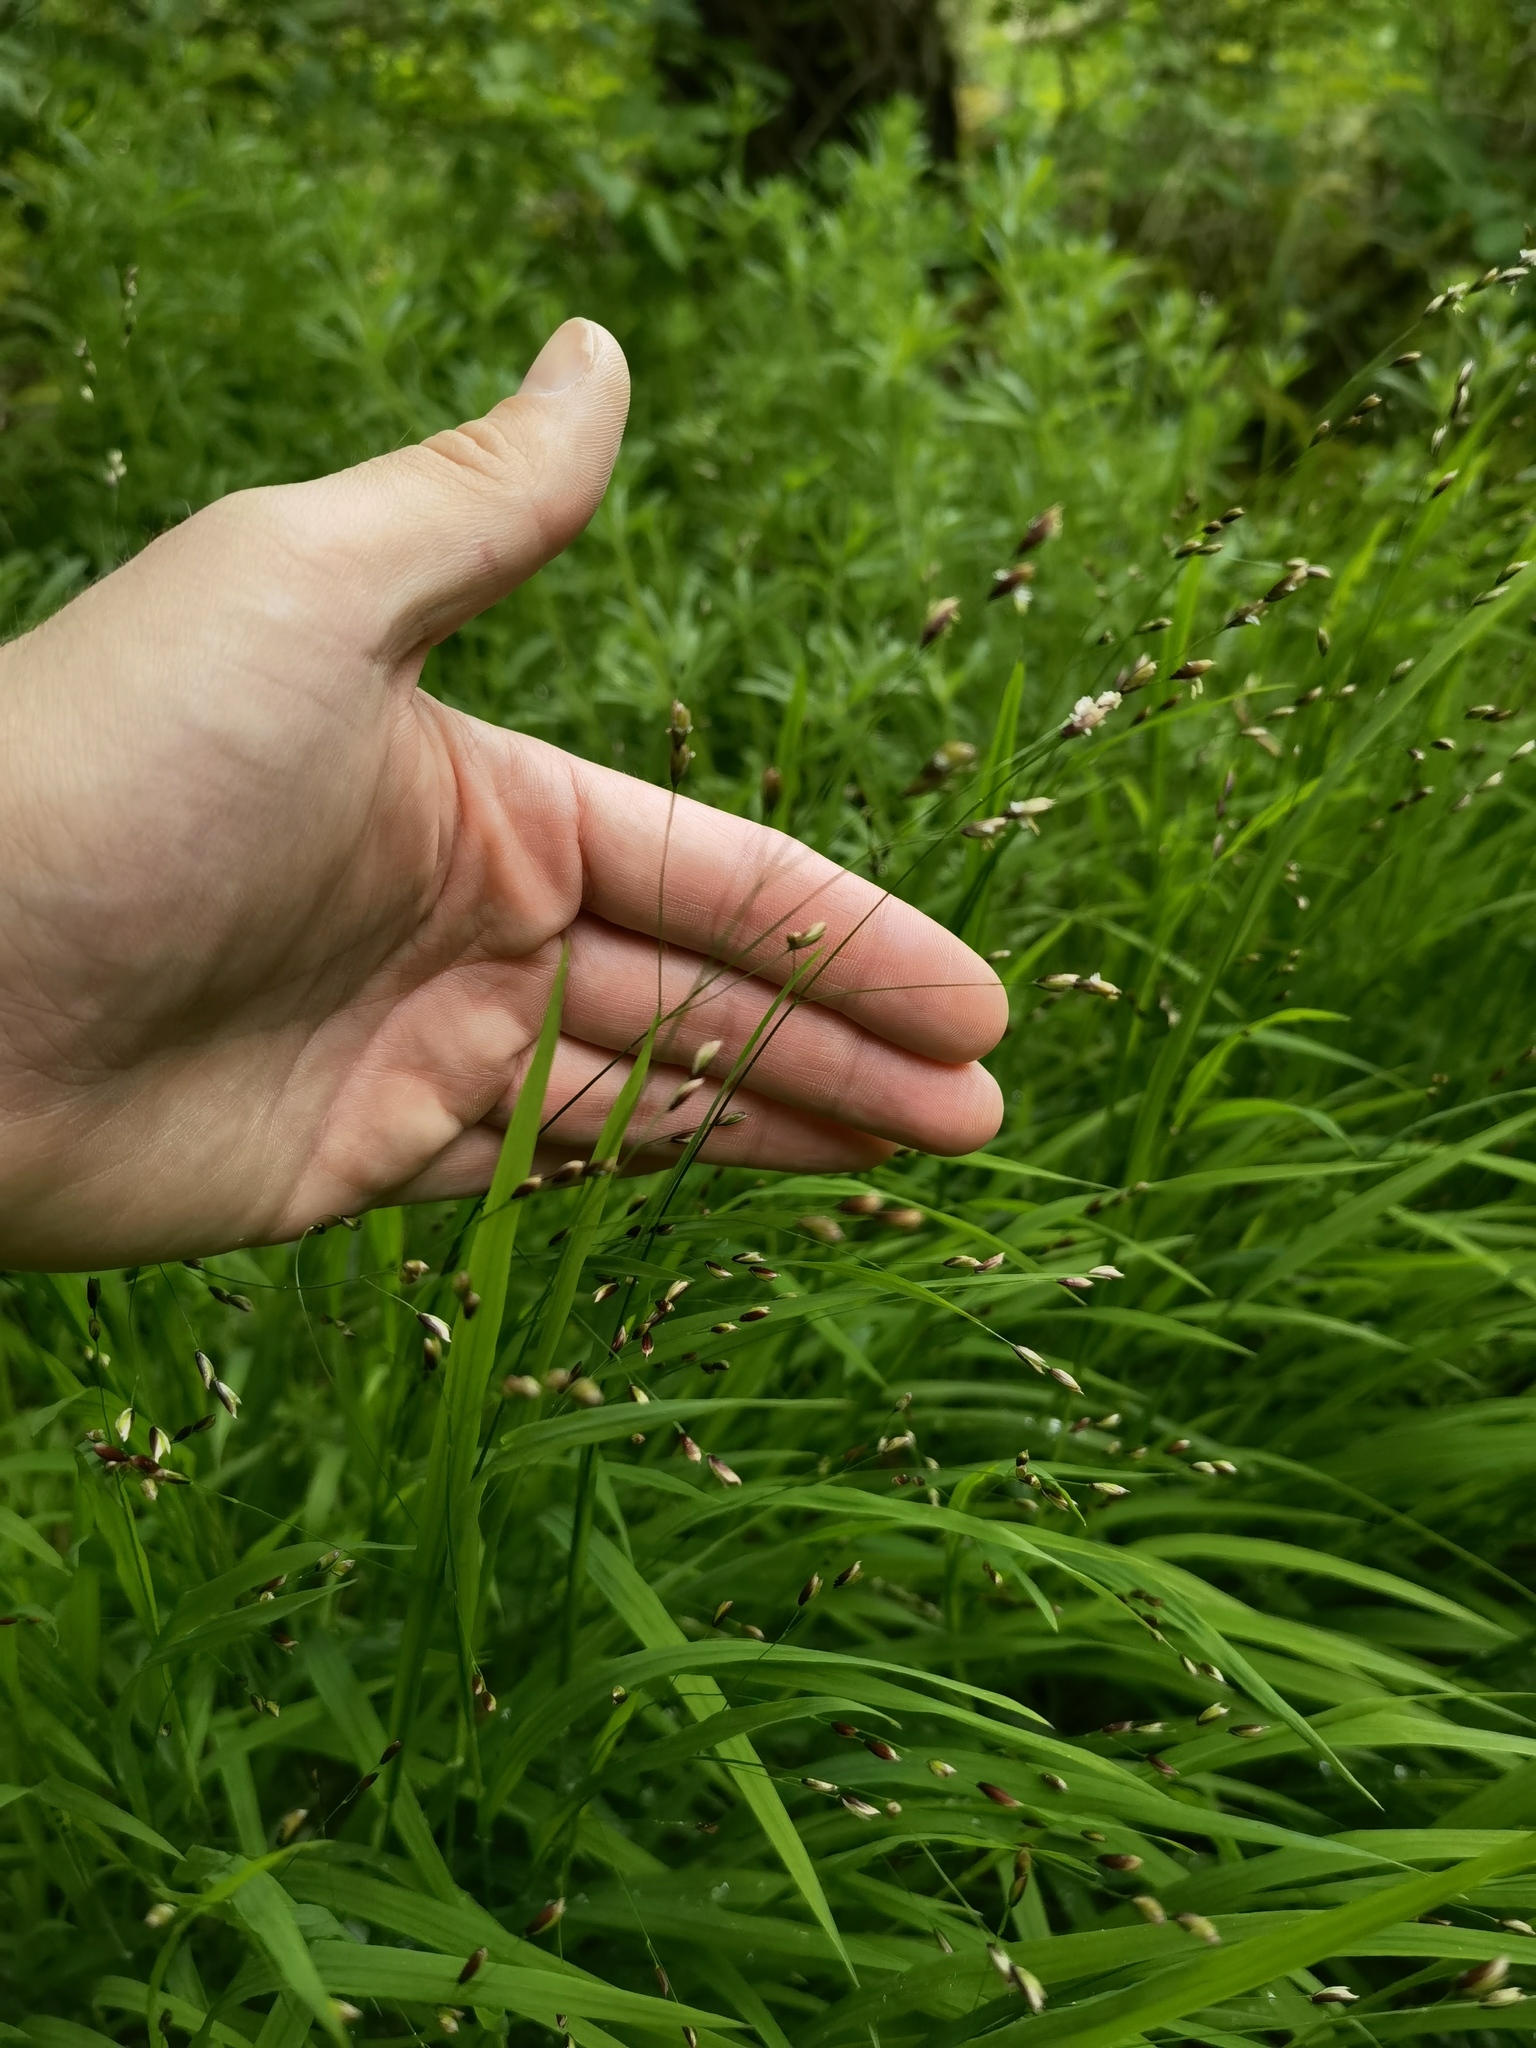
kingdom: Plantae
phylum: Tracheophyta
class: Liliopsida
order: Poales
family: Poaceae
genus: Melica
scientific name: Melica uniflora
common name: Wood melick
